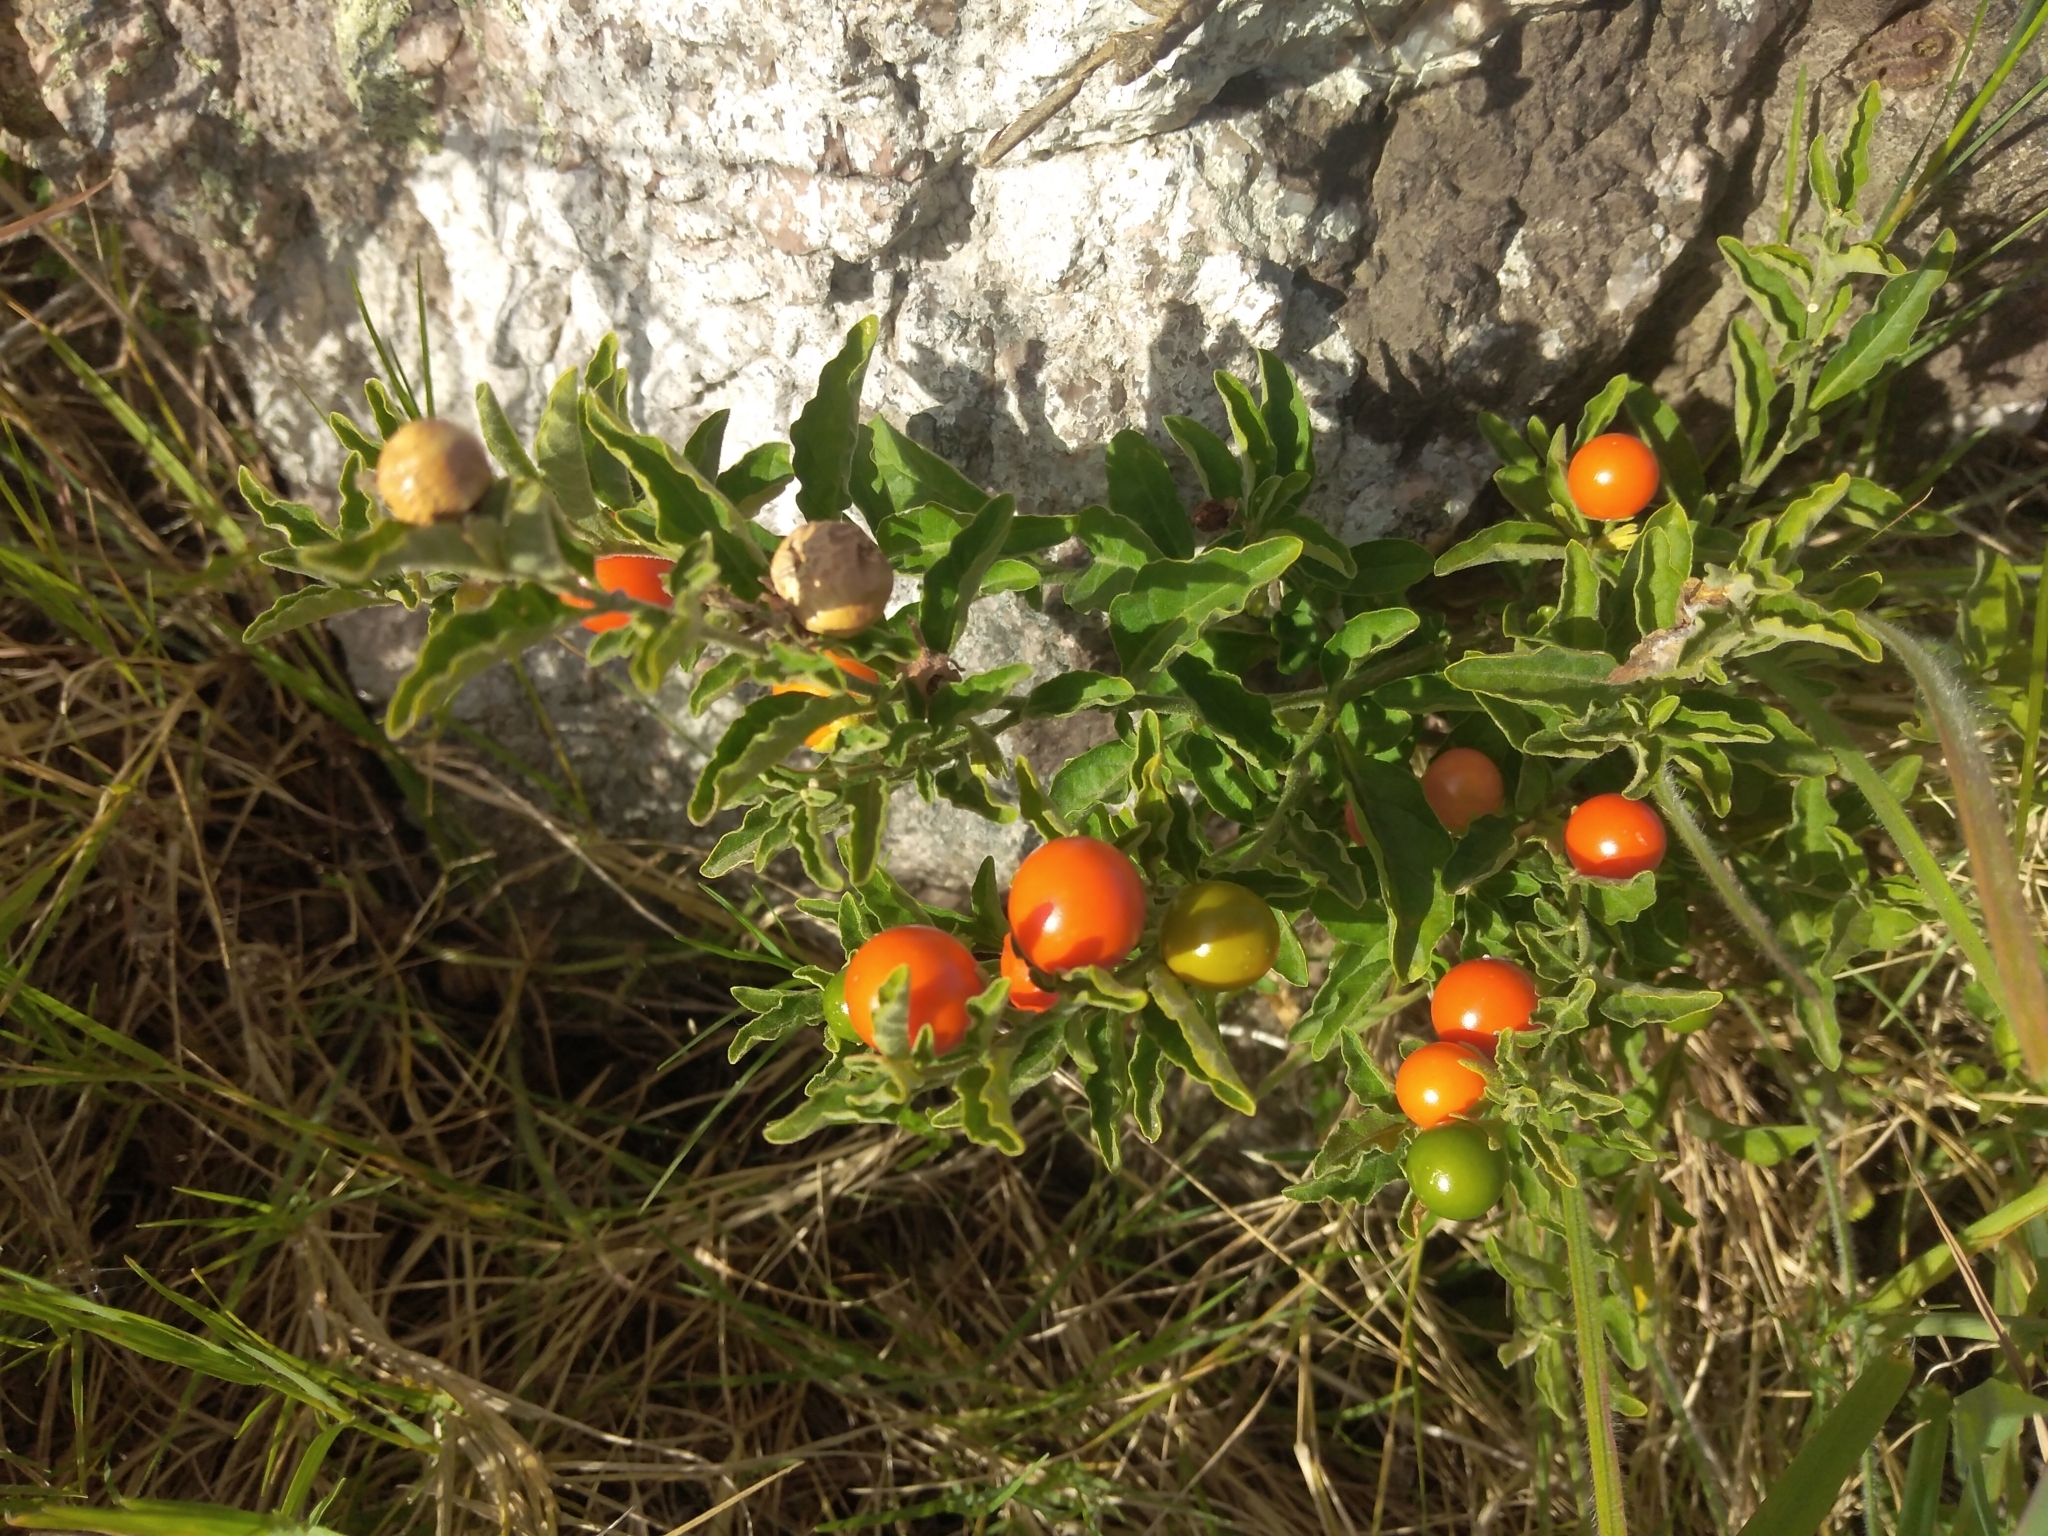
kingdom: Plantae
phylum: Tracheophyta
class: Magnoliopsida
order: Solanales
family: Solanaceae
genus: Solanum
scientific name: Solanum pseudocapsicum
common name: Jerusalem cherry
